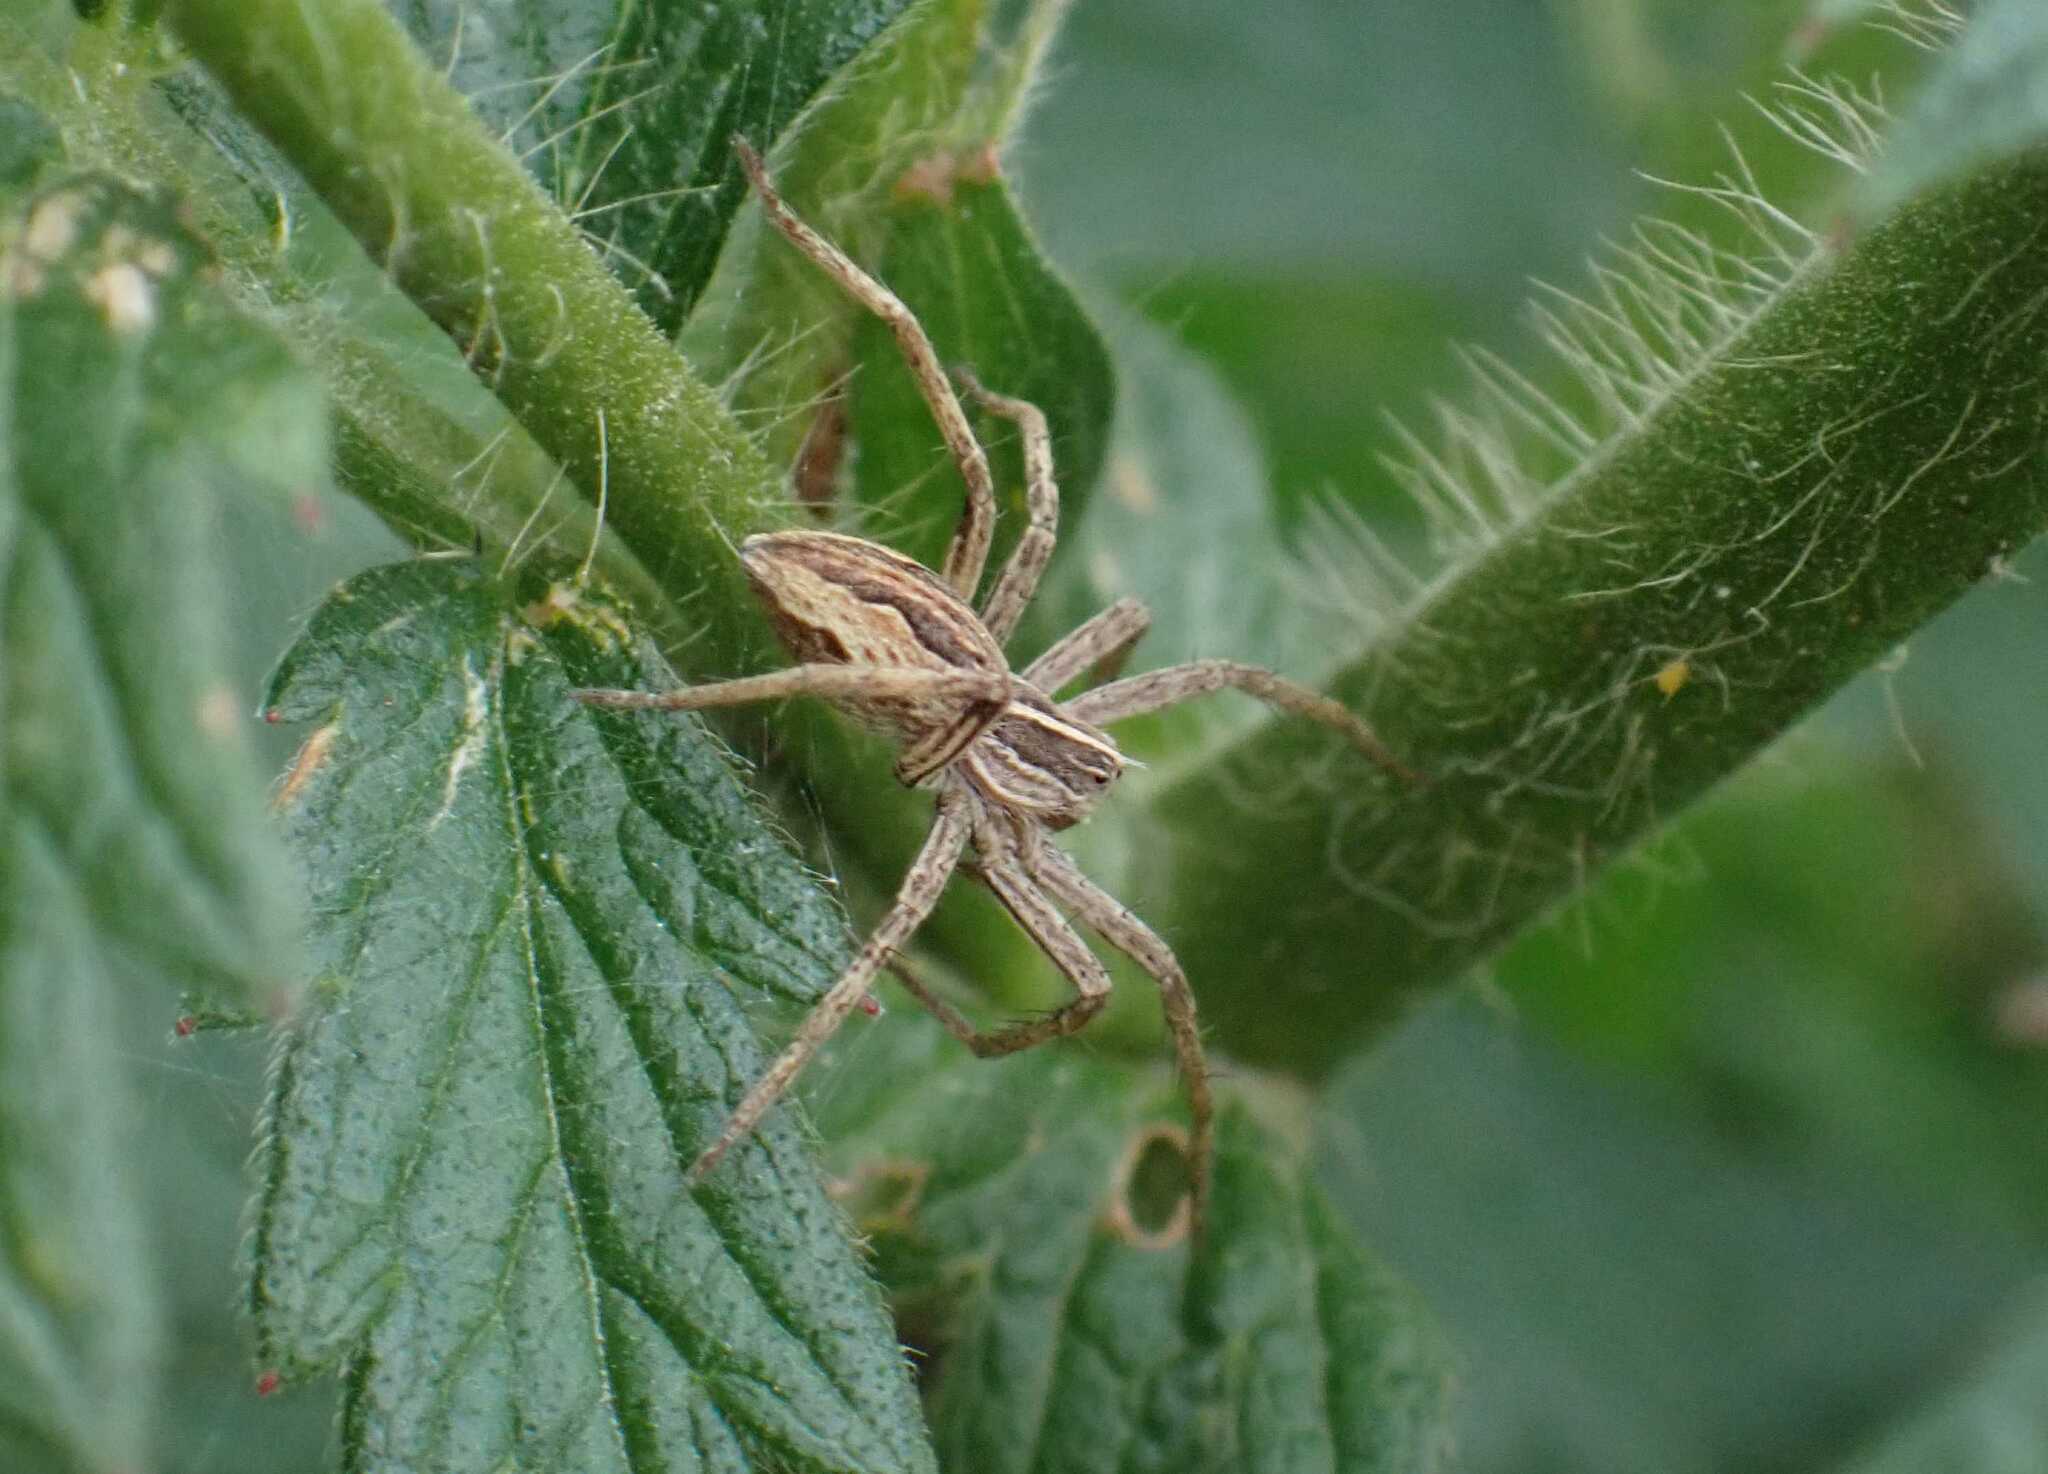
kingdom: Animalia
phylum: Arthropoda
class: Arachnida
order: Araneae
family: Pisauridae
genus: Pisaura
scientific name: Pisaura mirabilis
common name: Tent spider
